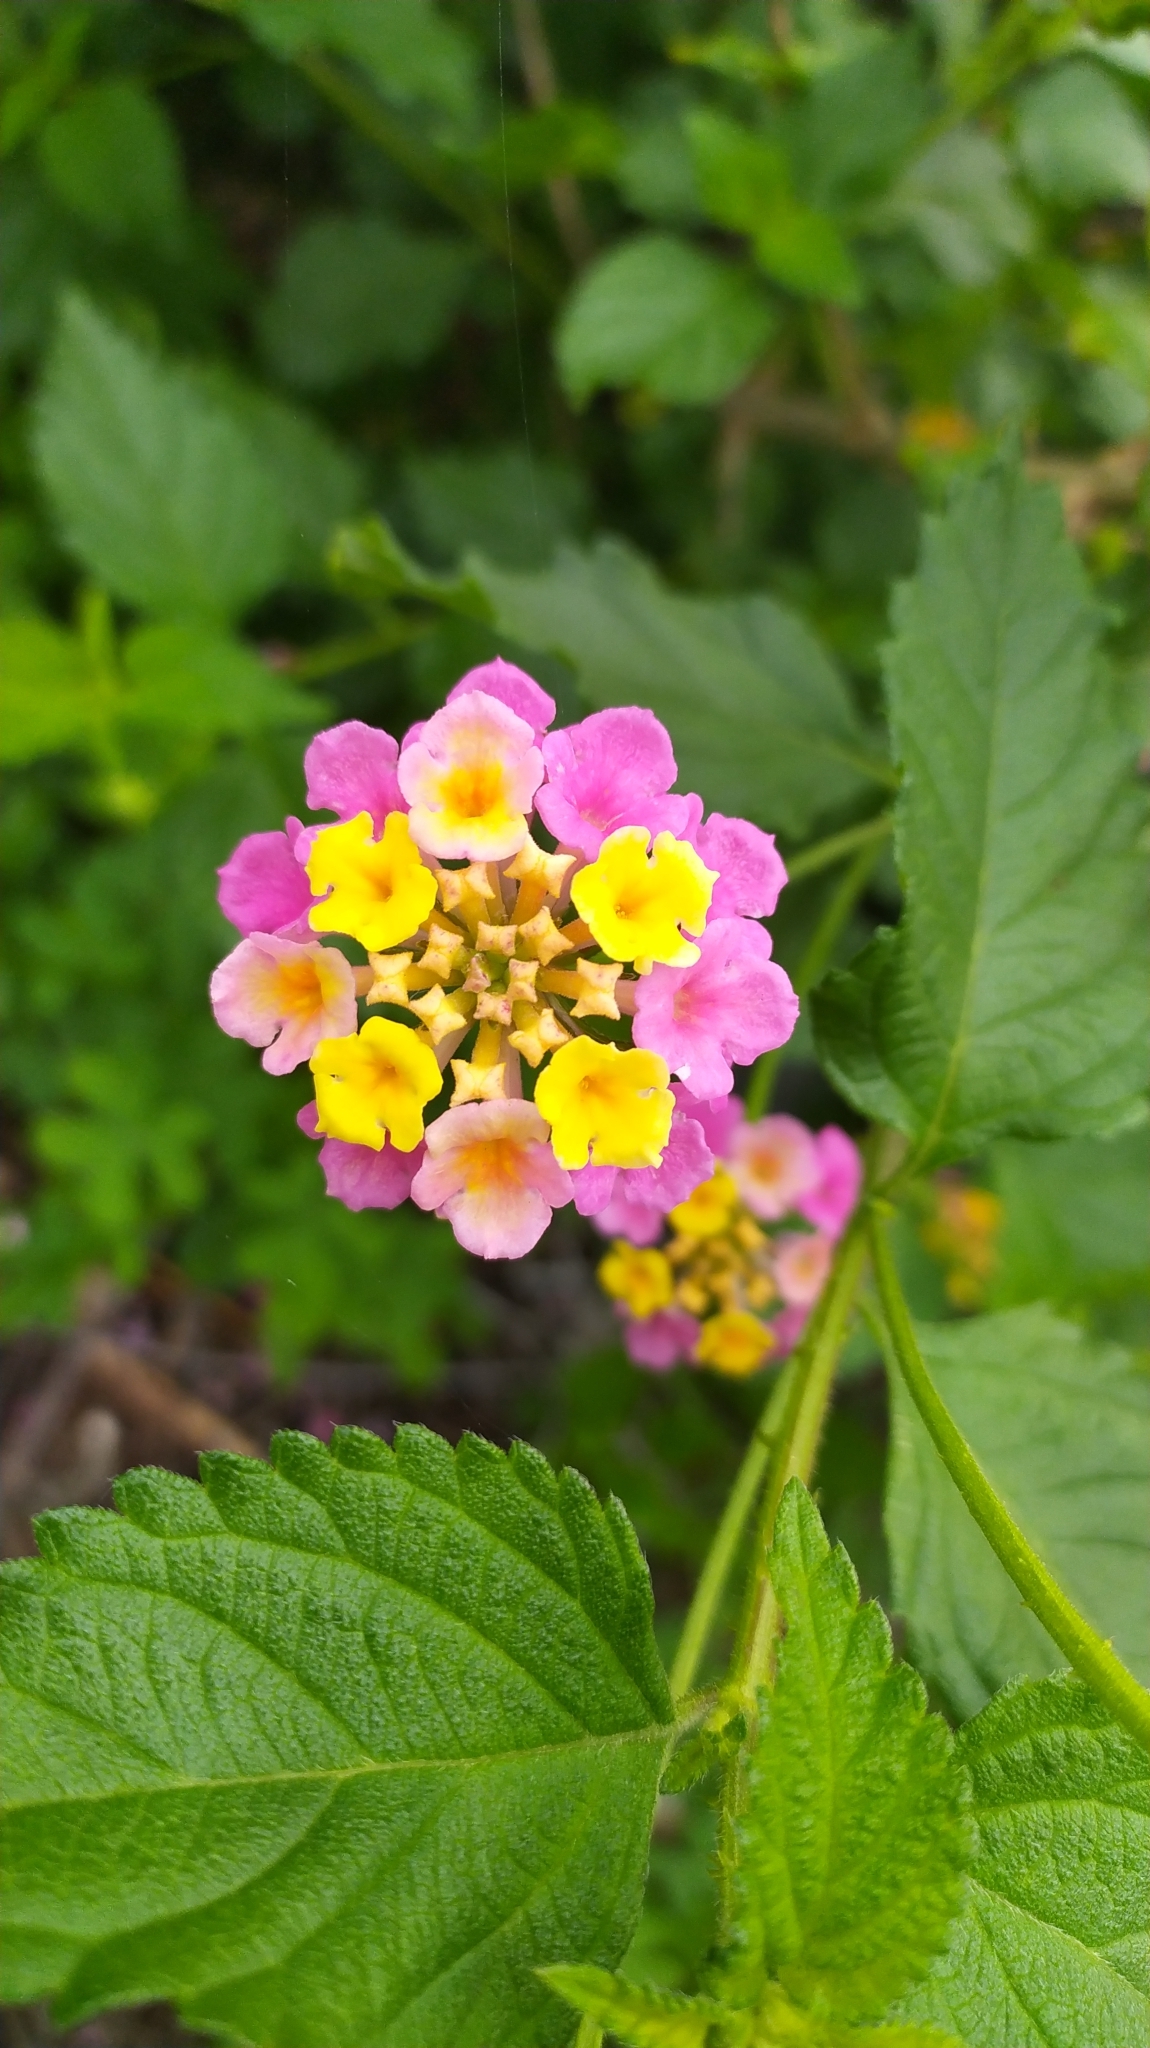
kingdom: Plantae
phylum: Tracheophyta
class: Magnoliopsida
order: Lamiales
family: Verbenaceae
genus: Lantana
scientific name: Lantana camara
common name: Lantana
